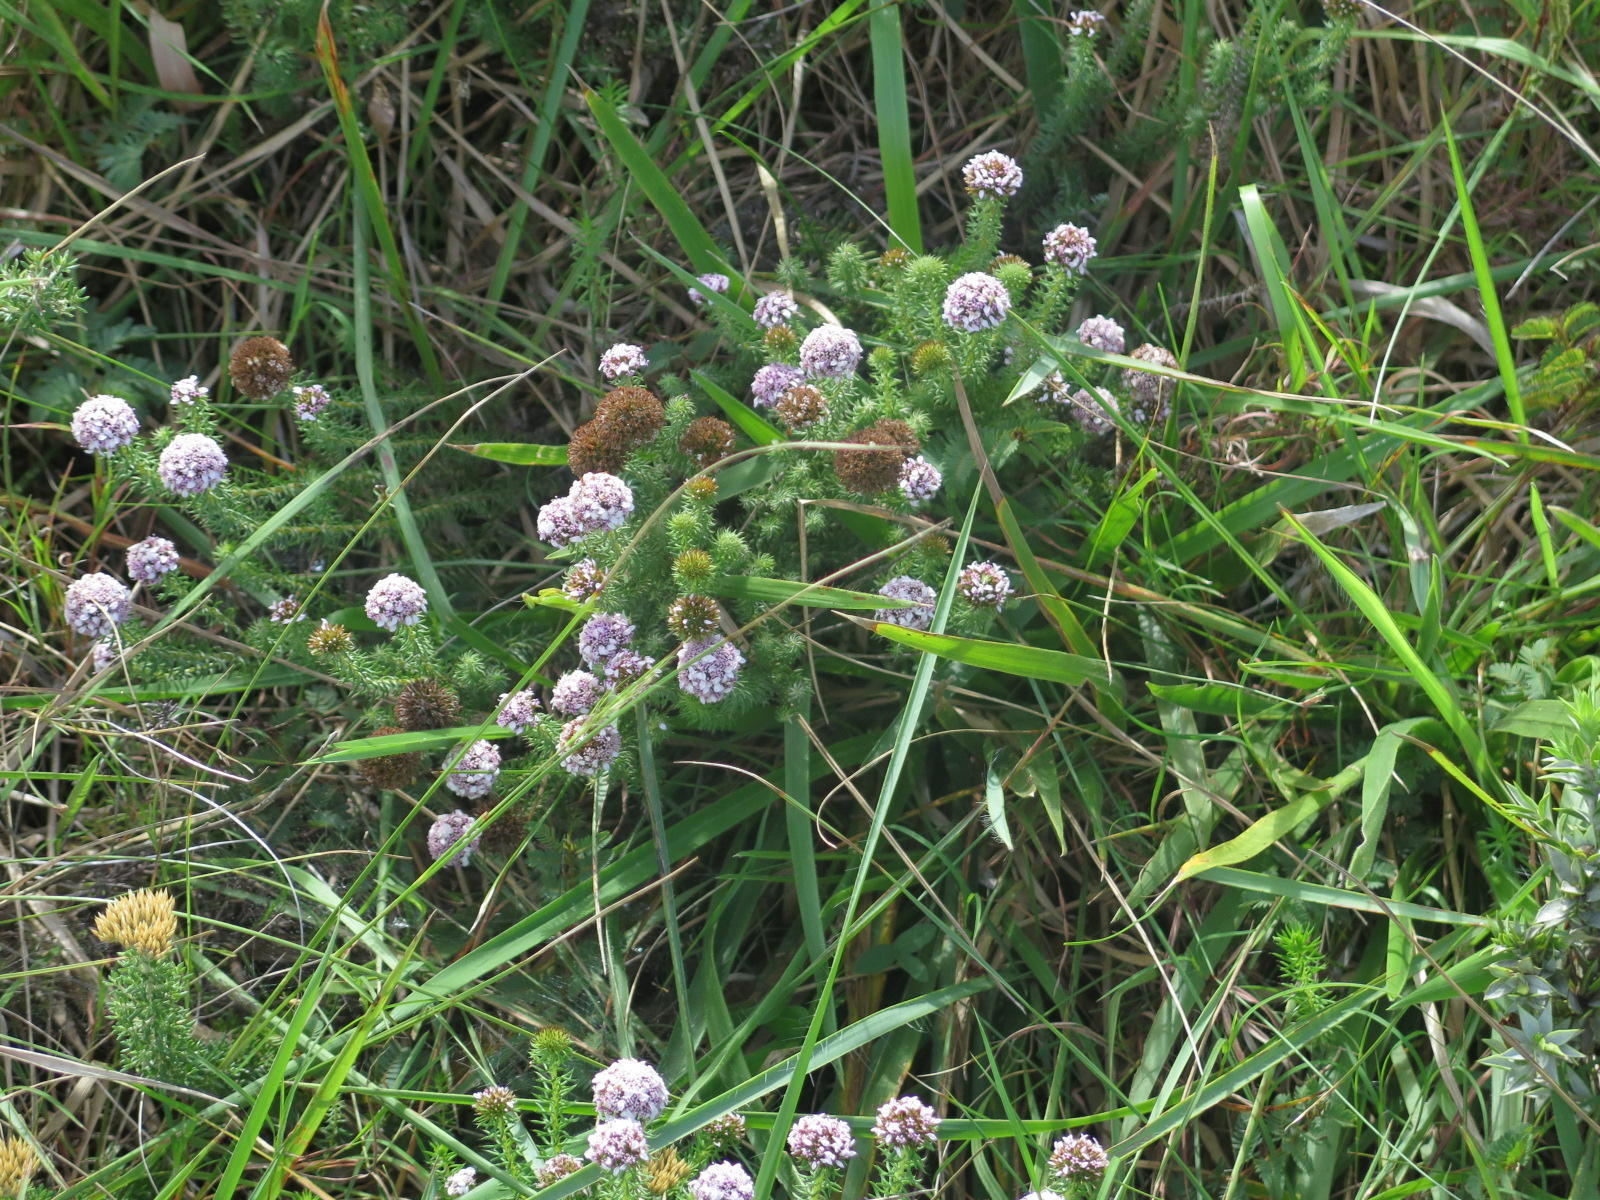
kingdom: Plantae
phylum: Tracheophyta
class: Magnoliopsida
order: Asterales
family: Asteraceae
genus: Disparago
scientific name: Disparago tortilis
